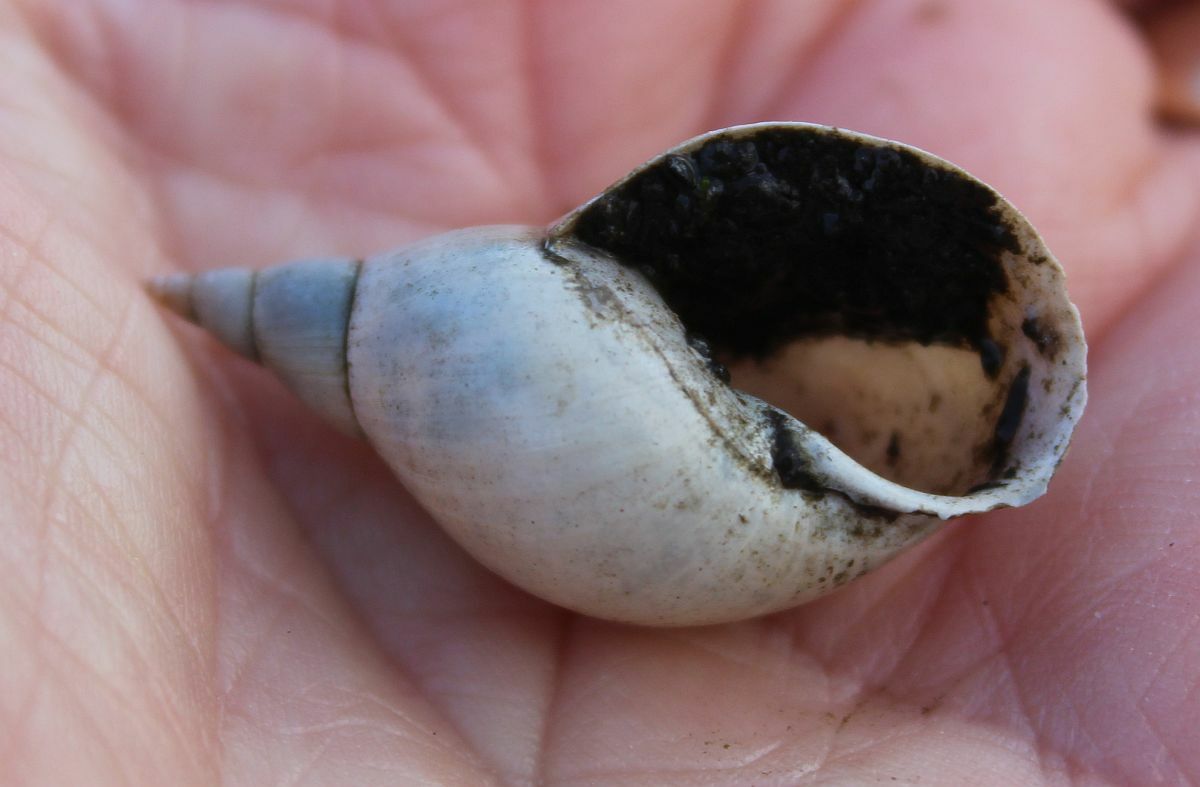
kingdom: Animalia
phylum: Mollusca
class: Gastropoda
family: Lymnaeidae
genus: Lymnaea
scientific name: Lymnaea stagnalis
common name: Great pond snail
